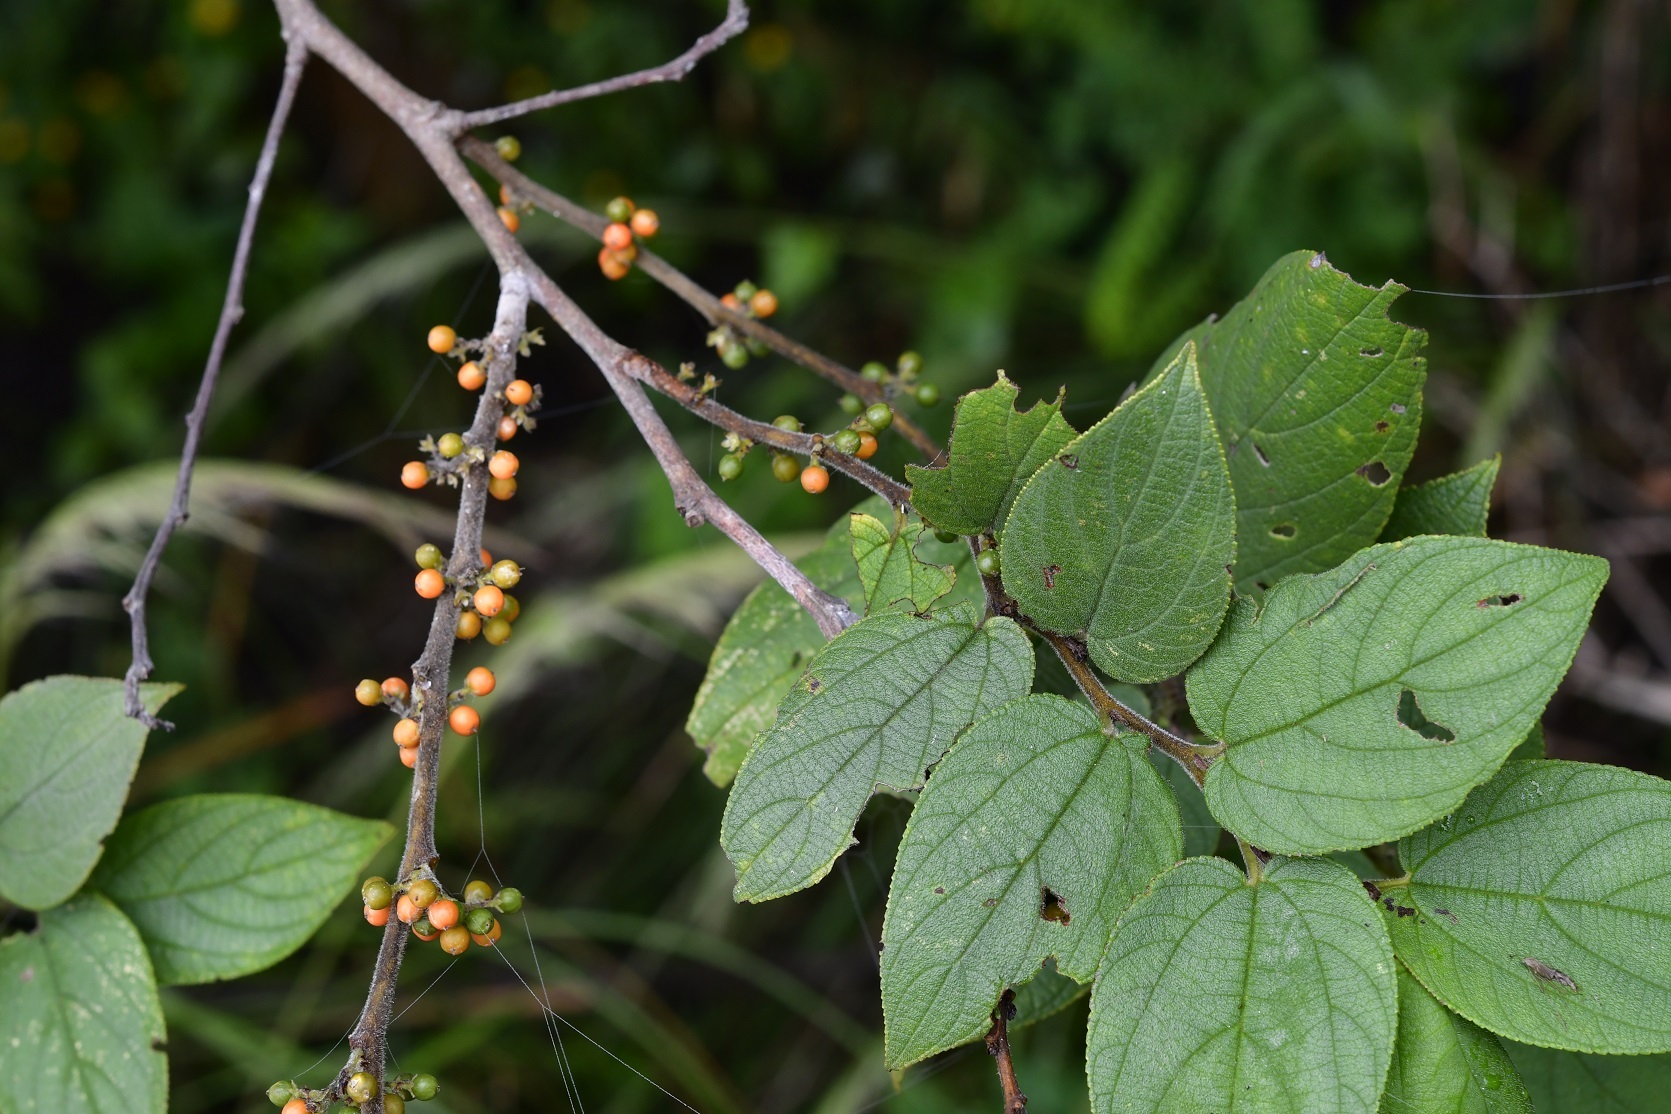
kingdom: Plantae
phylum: Tracheophyta
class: Magnoliopsida
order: Rosales
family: Cannabaceae
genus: Trema
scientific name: Trema micranthum
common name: Jamaican nettletree
